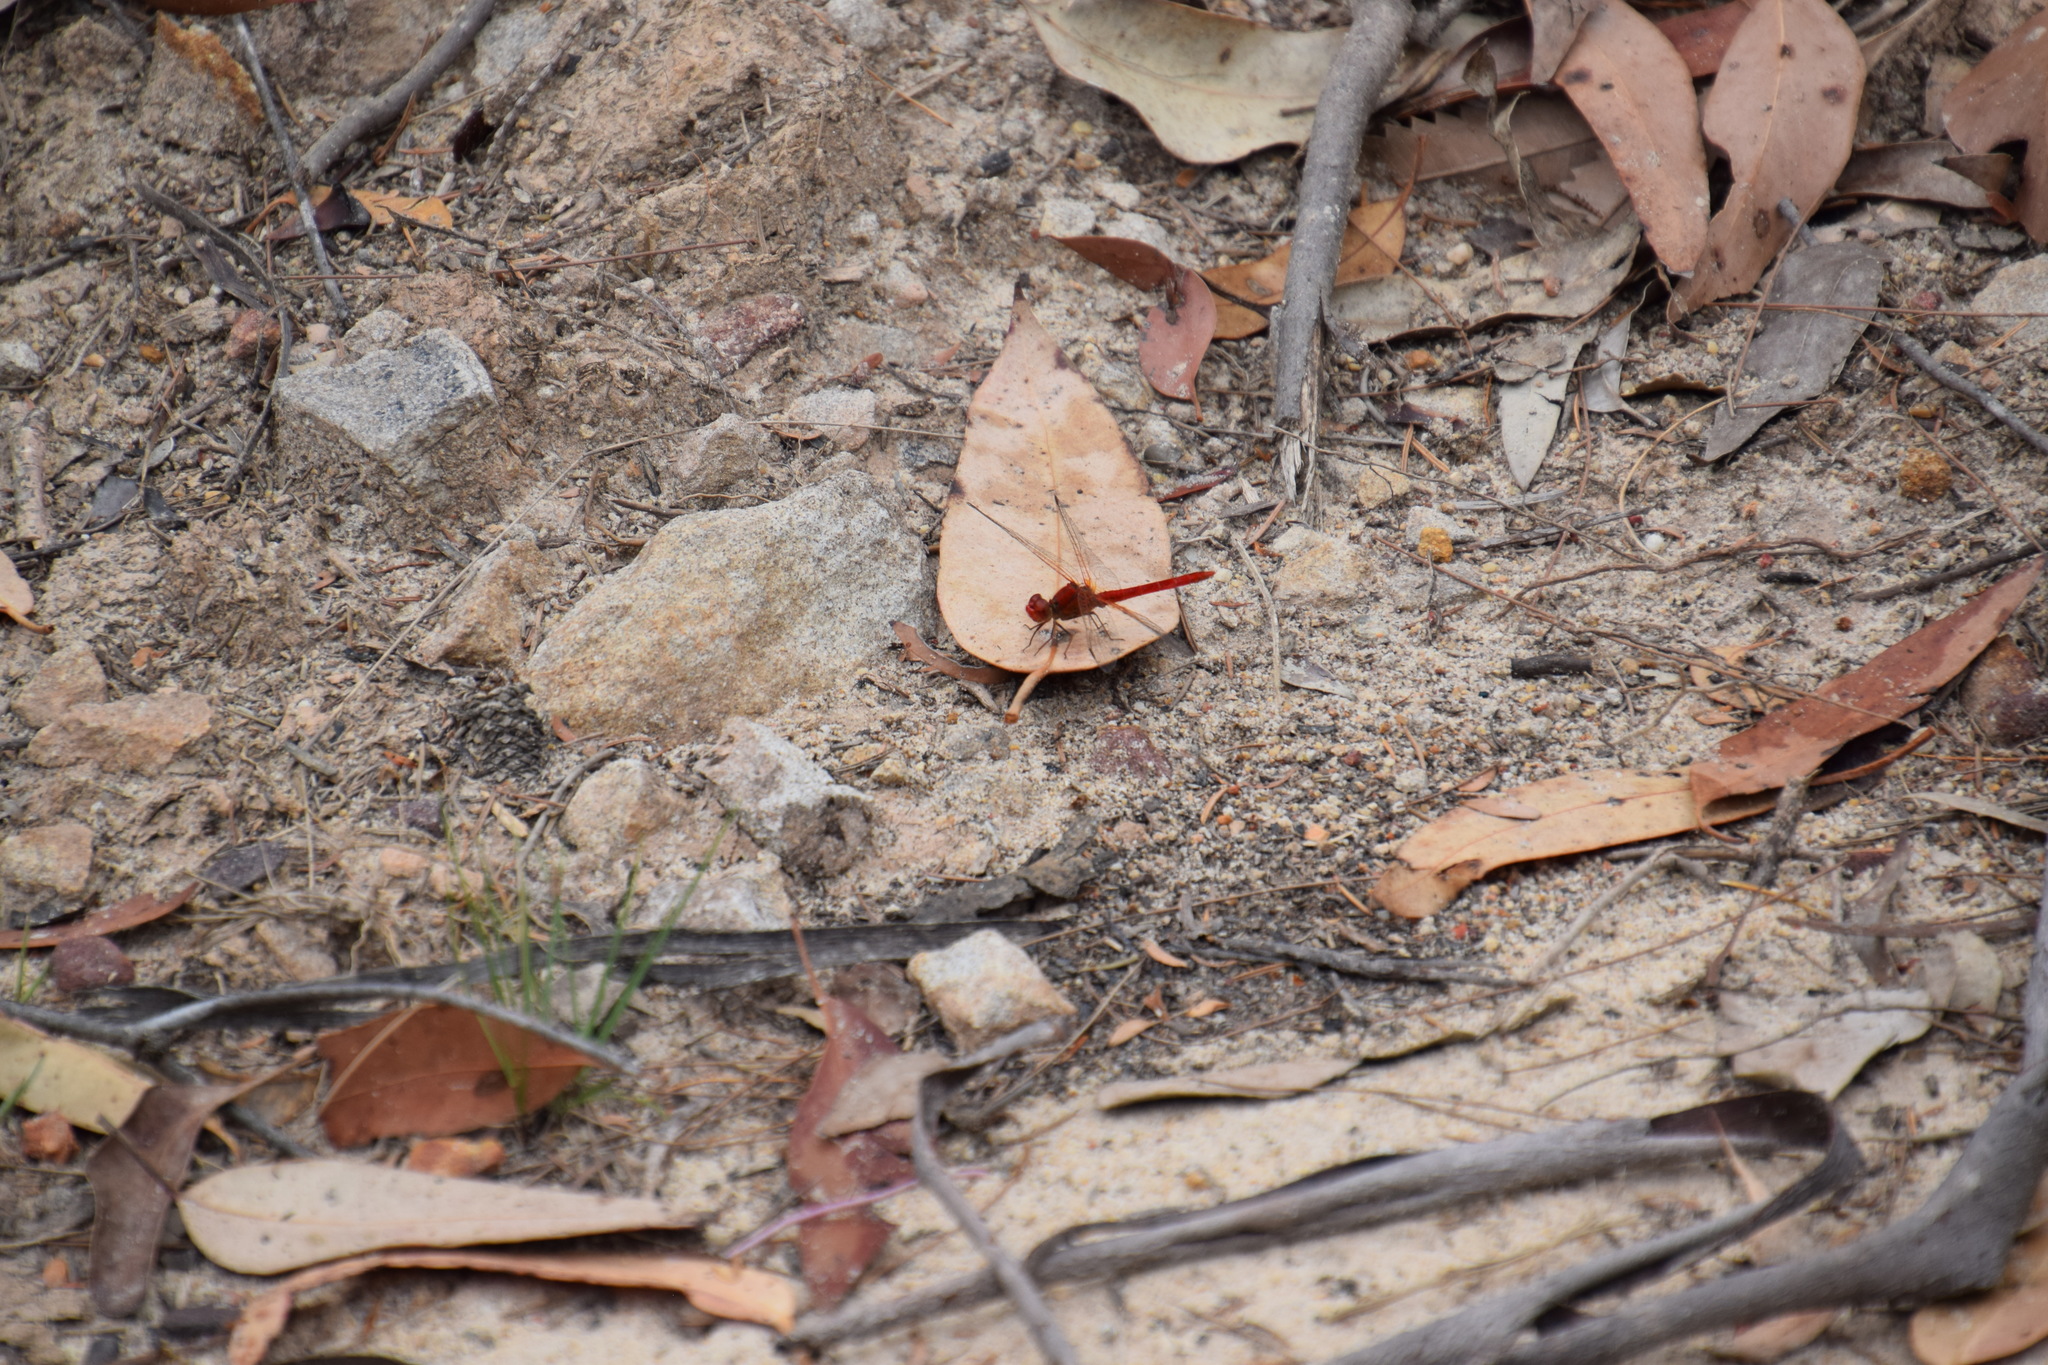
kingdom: Animalia
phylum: Arthropoda
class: Insecta
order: Odonata
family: Libellulidae
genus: Diplacodes
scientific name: Diplacodes haematodes
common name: Scarlet percher
